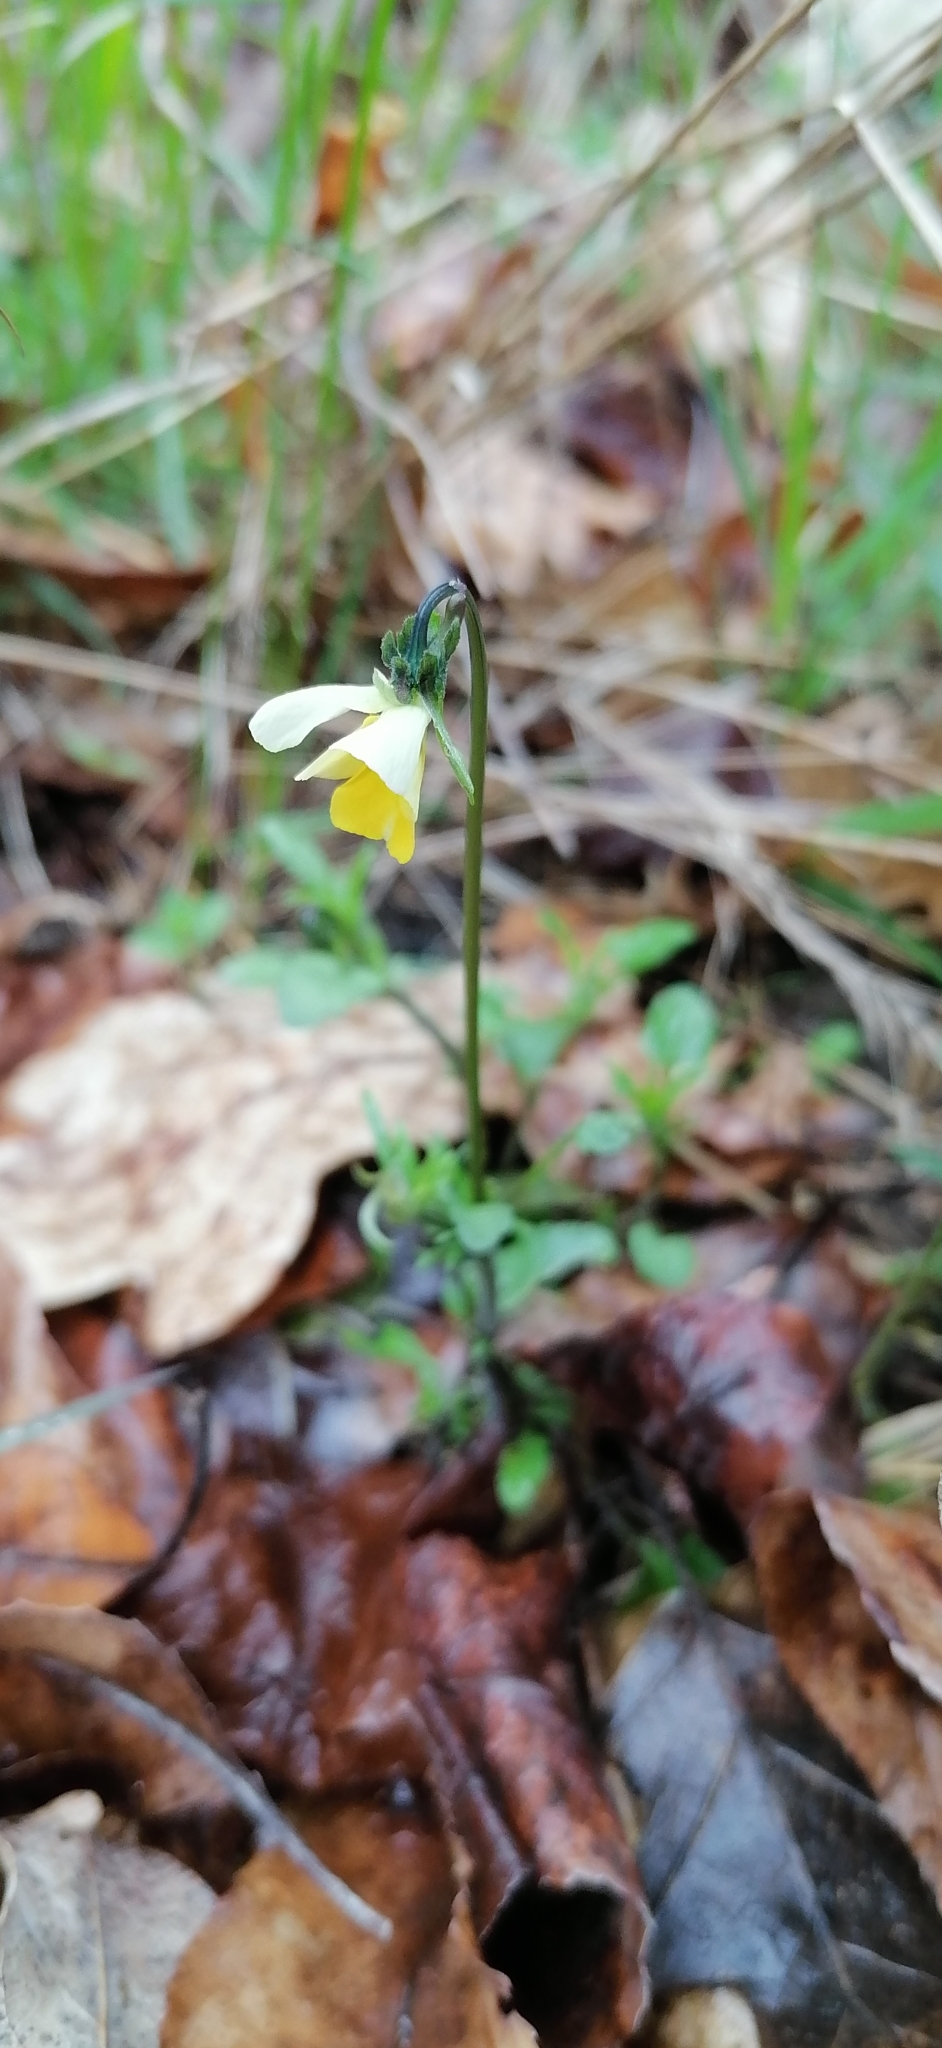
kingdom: Plantae
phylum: Tracheophyta
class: Magnoliopsida
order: Malpighiales
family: Violaceae
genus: Viola
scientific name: Viola arvensis
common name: Field pansy
